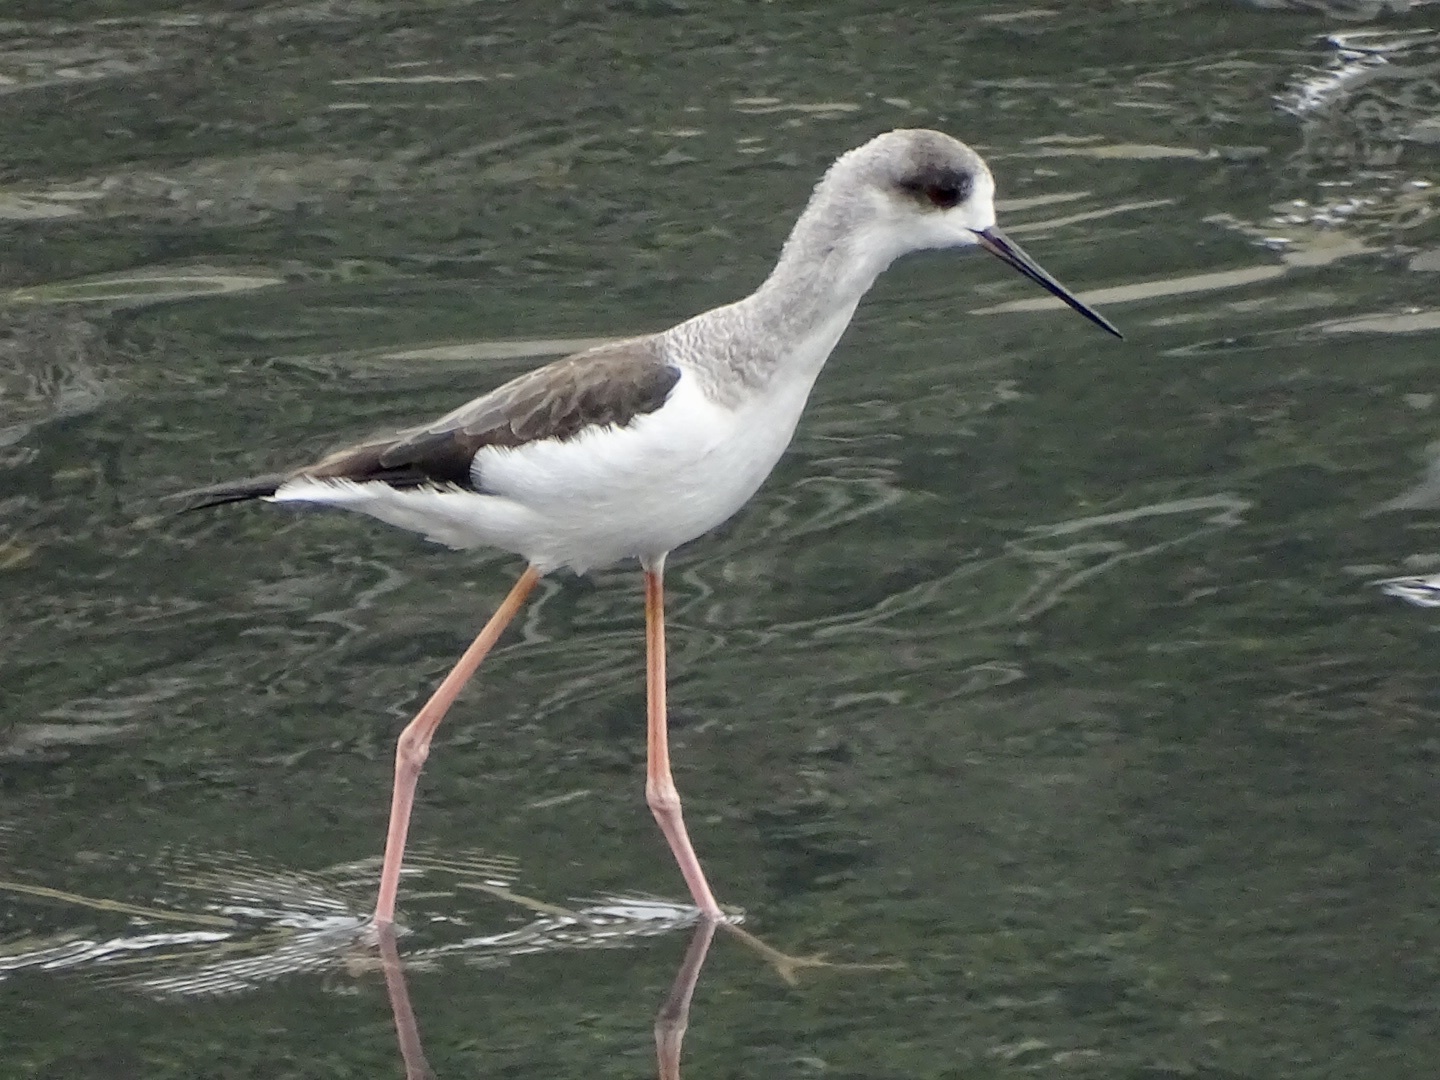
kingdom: Animalia
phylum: Chordata
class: Aves
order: Charadriiformes
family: Recurvirostridae
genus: Himantopus
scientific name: Himantopus himantopus
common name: Black-winged stilt
